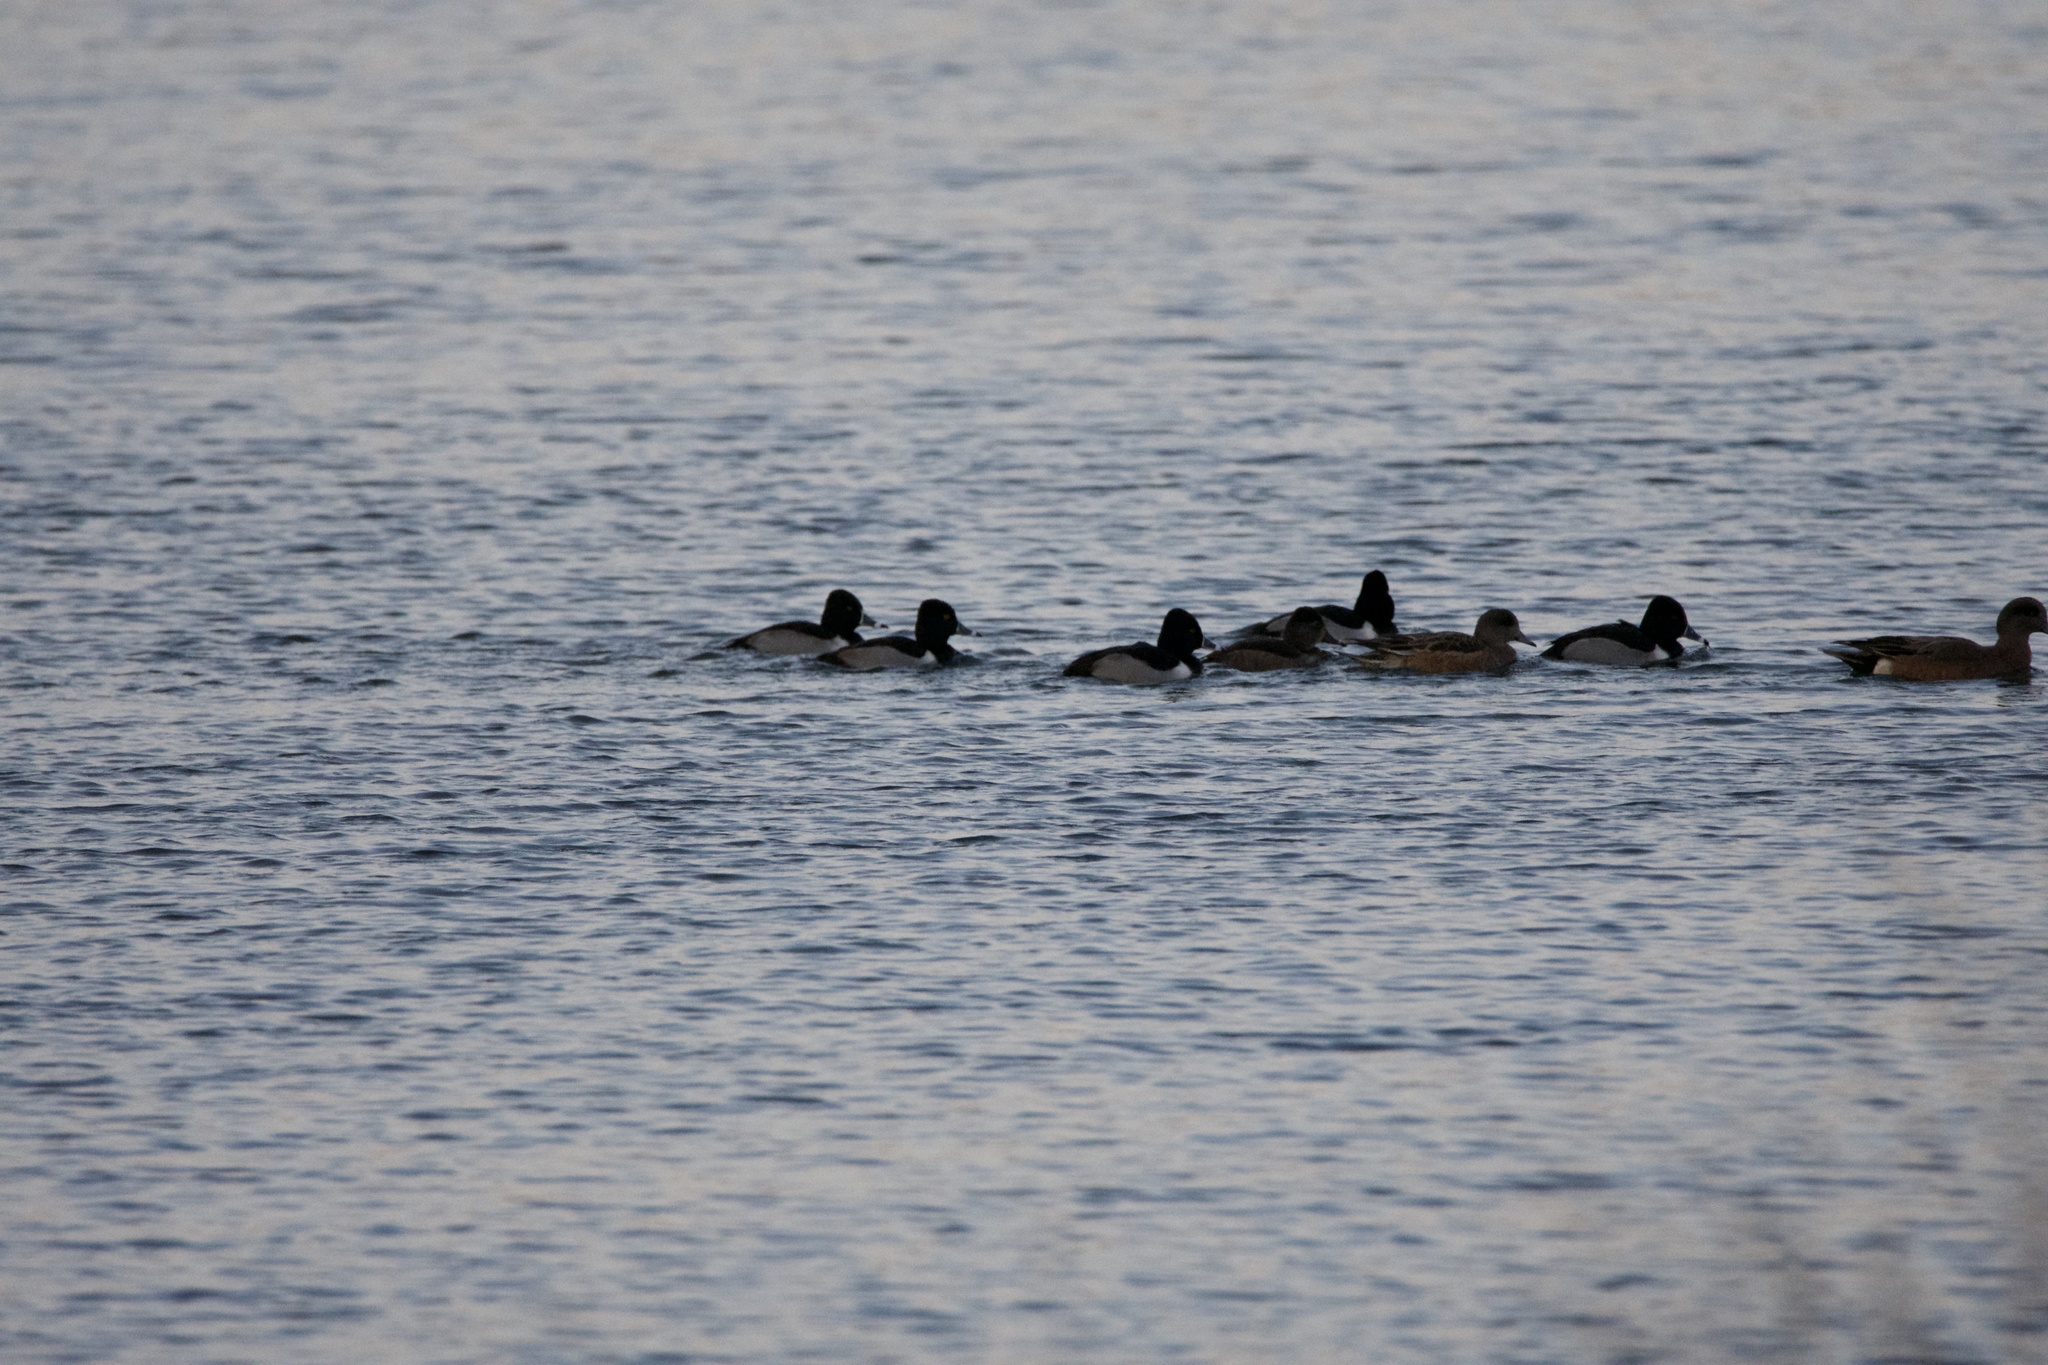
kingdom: Animalia
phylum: Chordata
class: Aves
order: Anseriformes
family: Anatidae
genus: Aythya
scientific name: Aythya collaris
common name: Ring-necked duck
